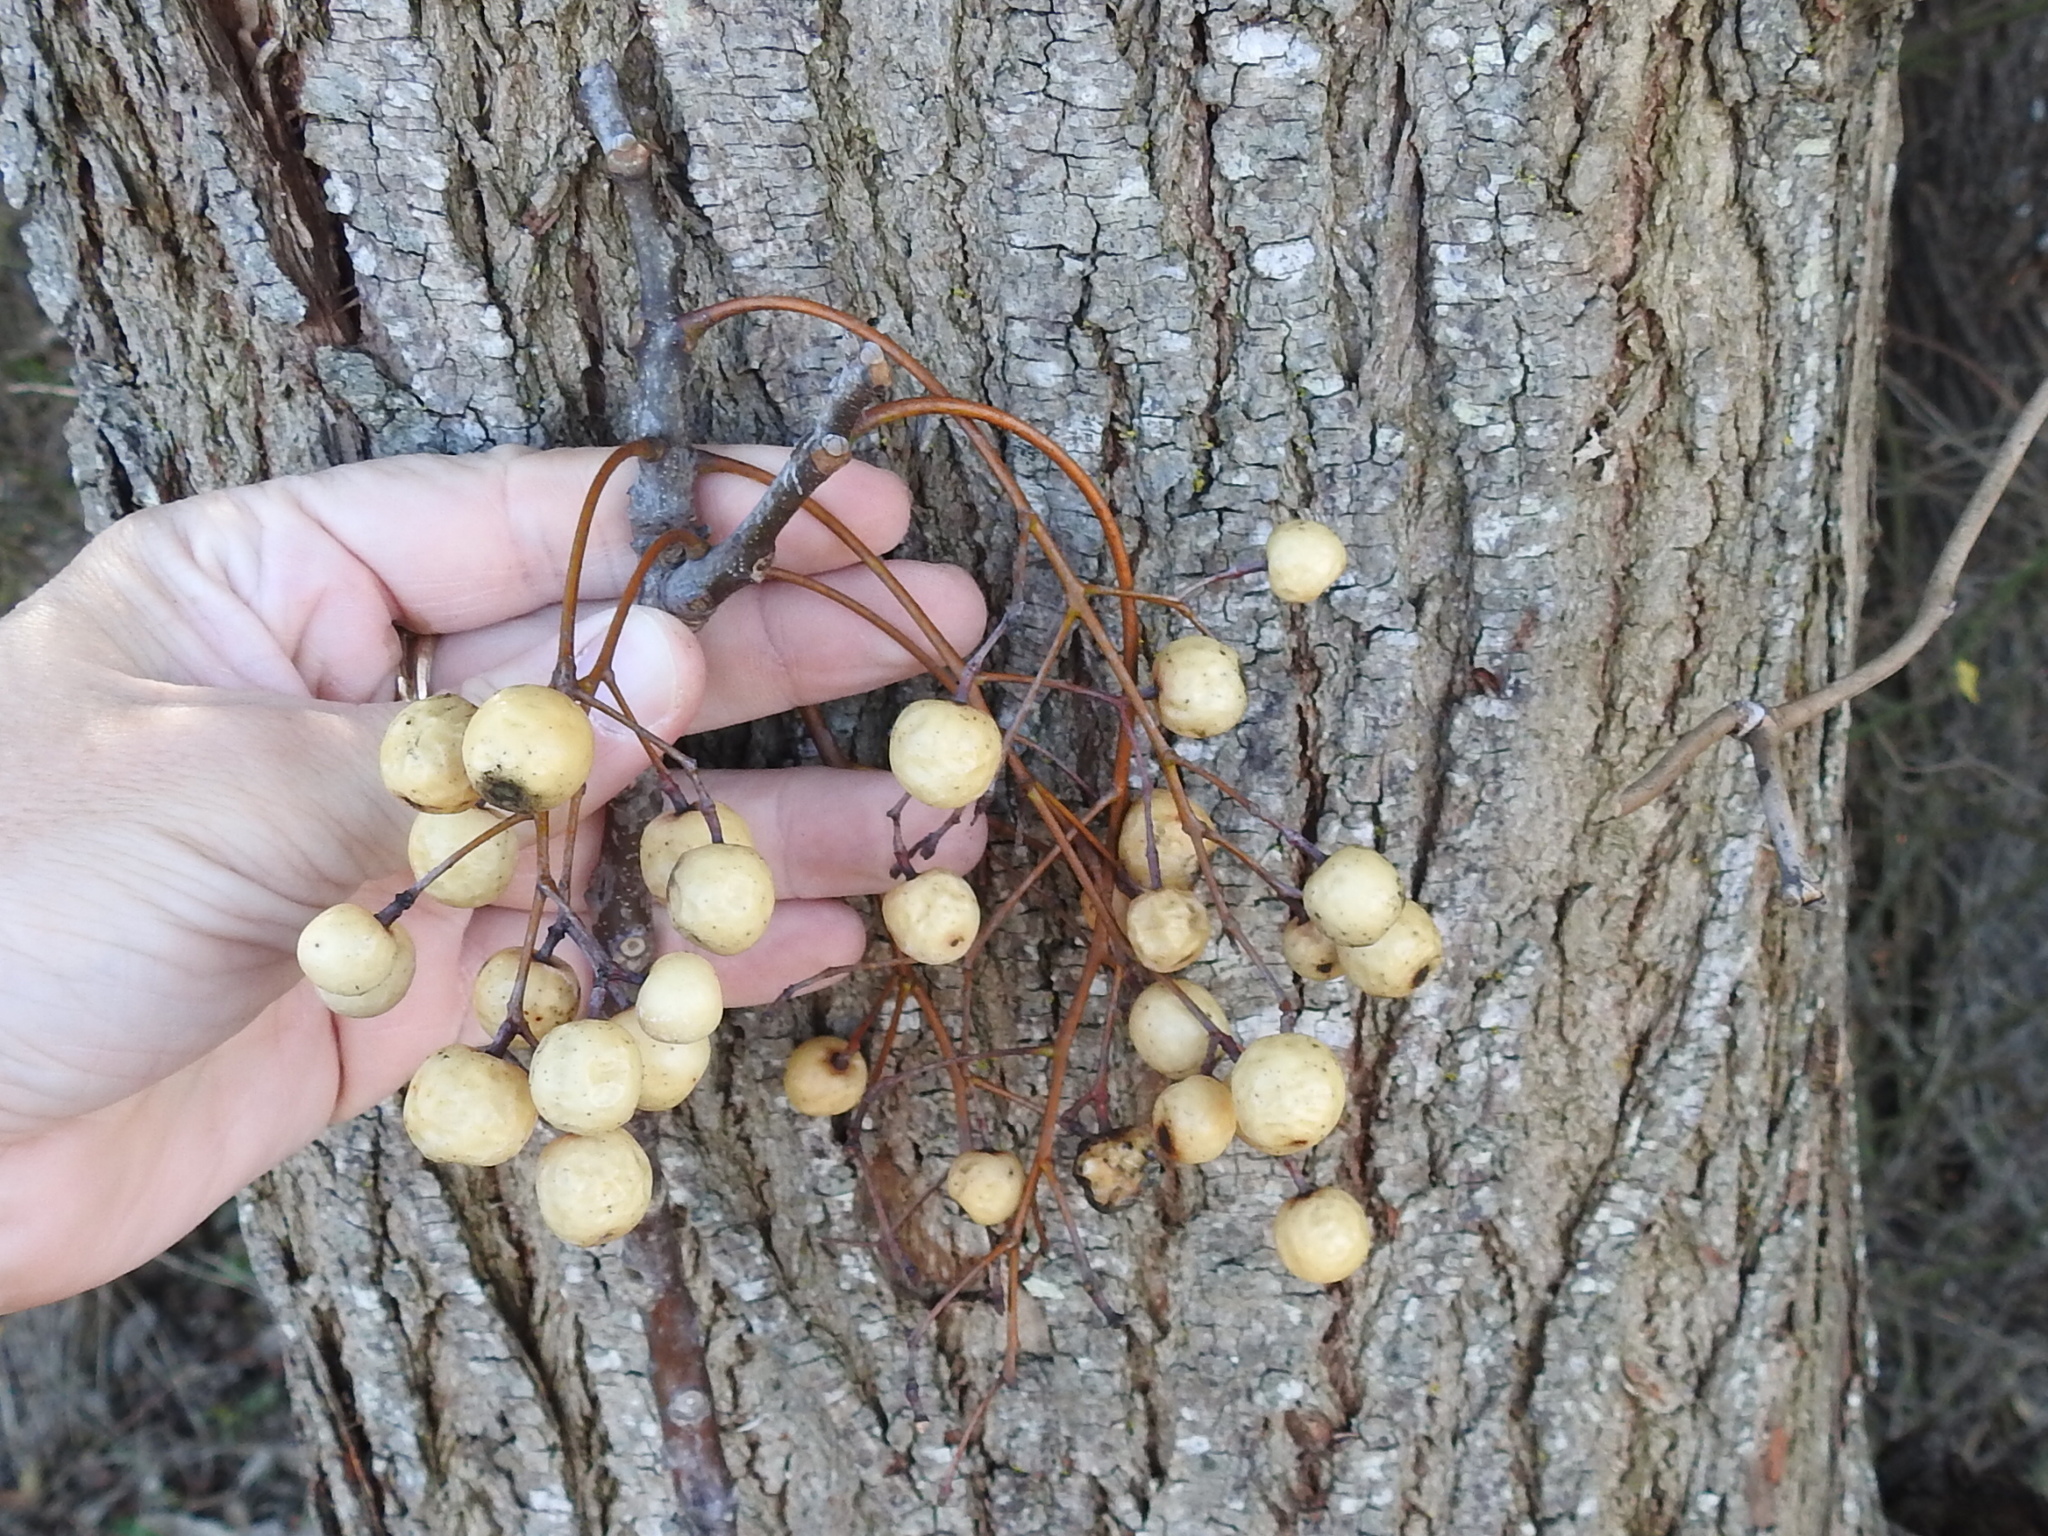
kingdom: Plantae
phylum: Tracheophyta
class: Magnoliopsida
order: Sapindales
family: Meliaceae
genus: Melia
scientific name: Melia azedarach
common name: Chinaberrytree
